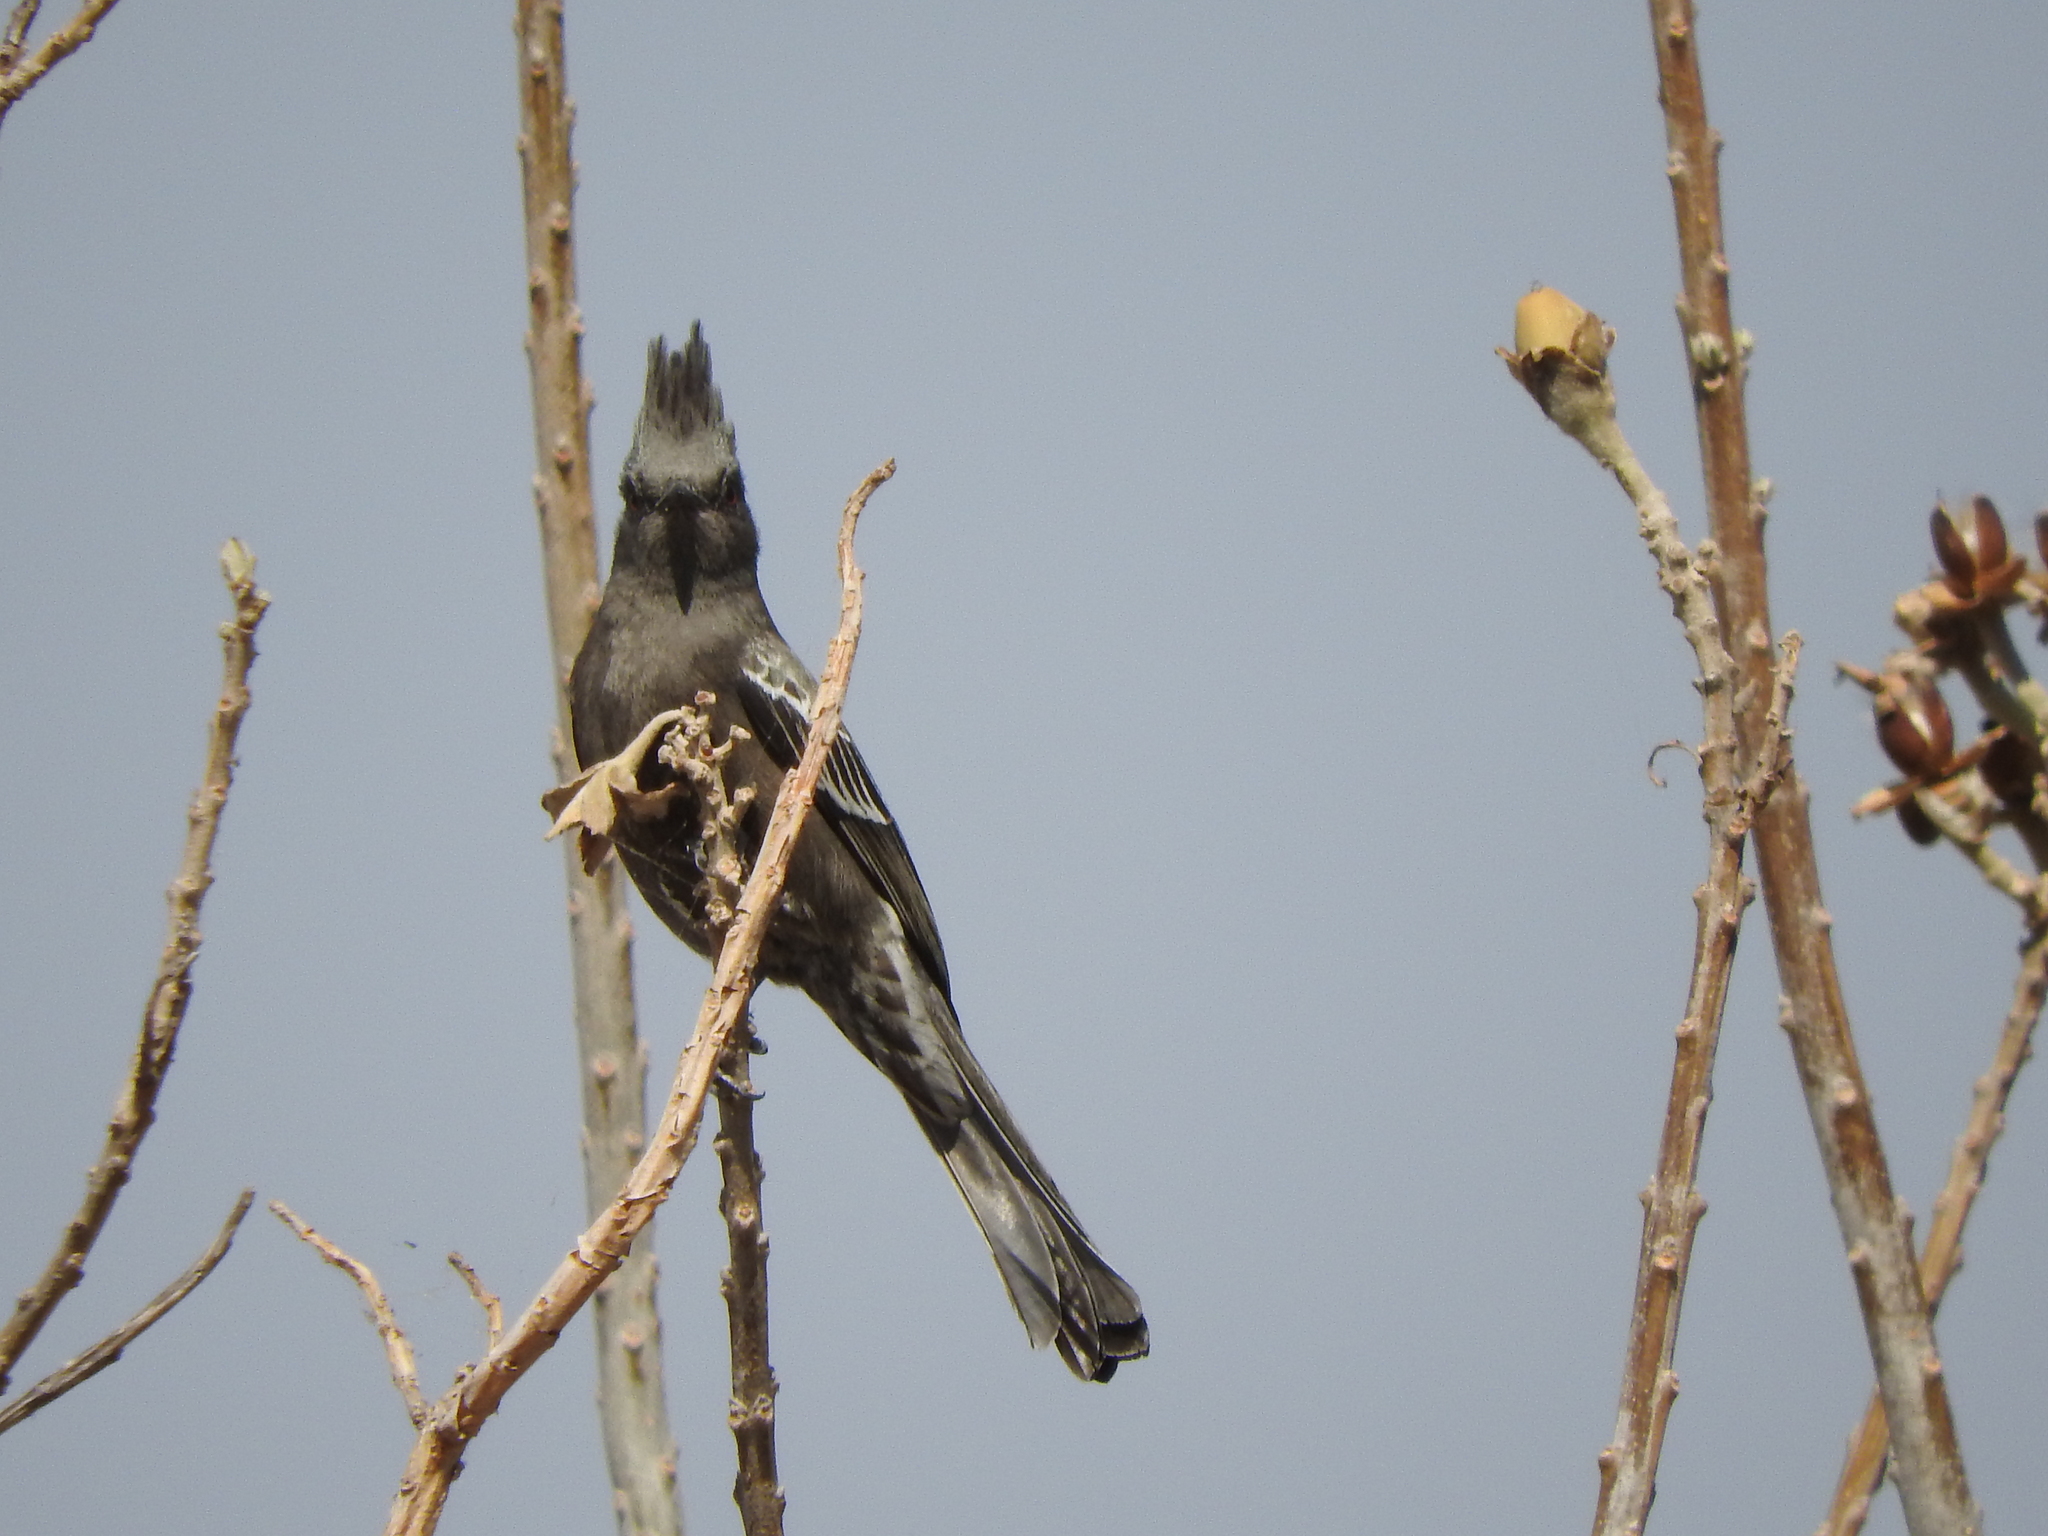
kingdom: Animalia
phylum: Chordata
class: Aves
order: Passeriformes
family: Ptilogonatidae
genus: Phainopepla
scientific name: Phainopepla nitens
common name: Phainopepla
